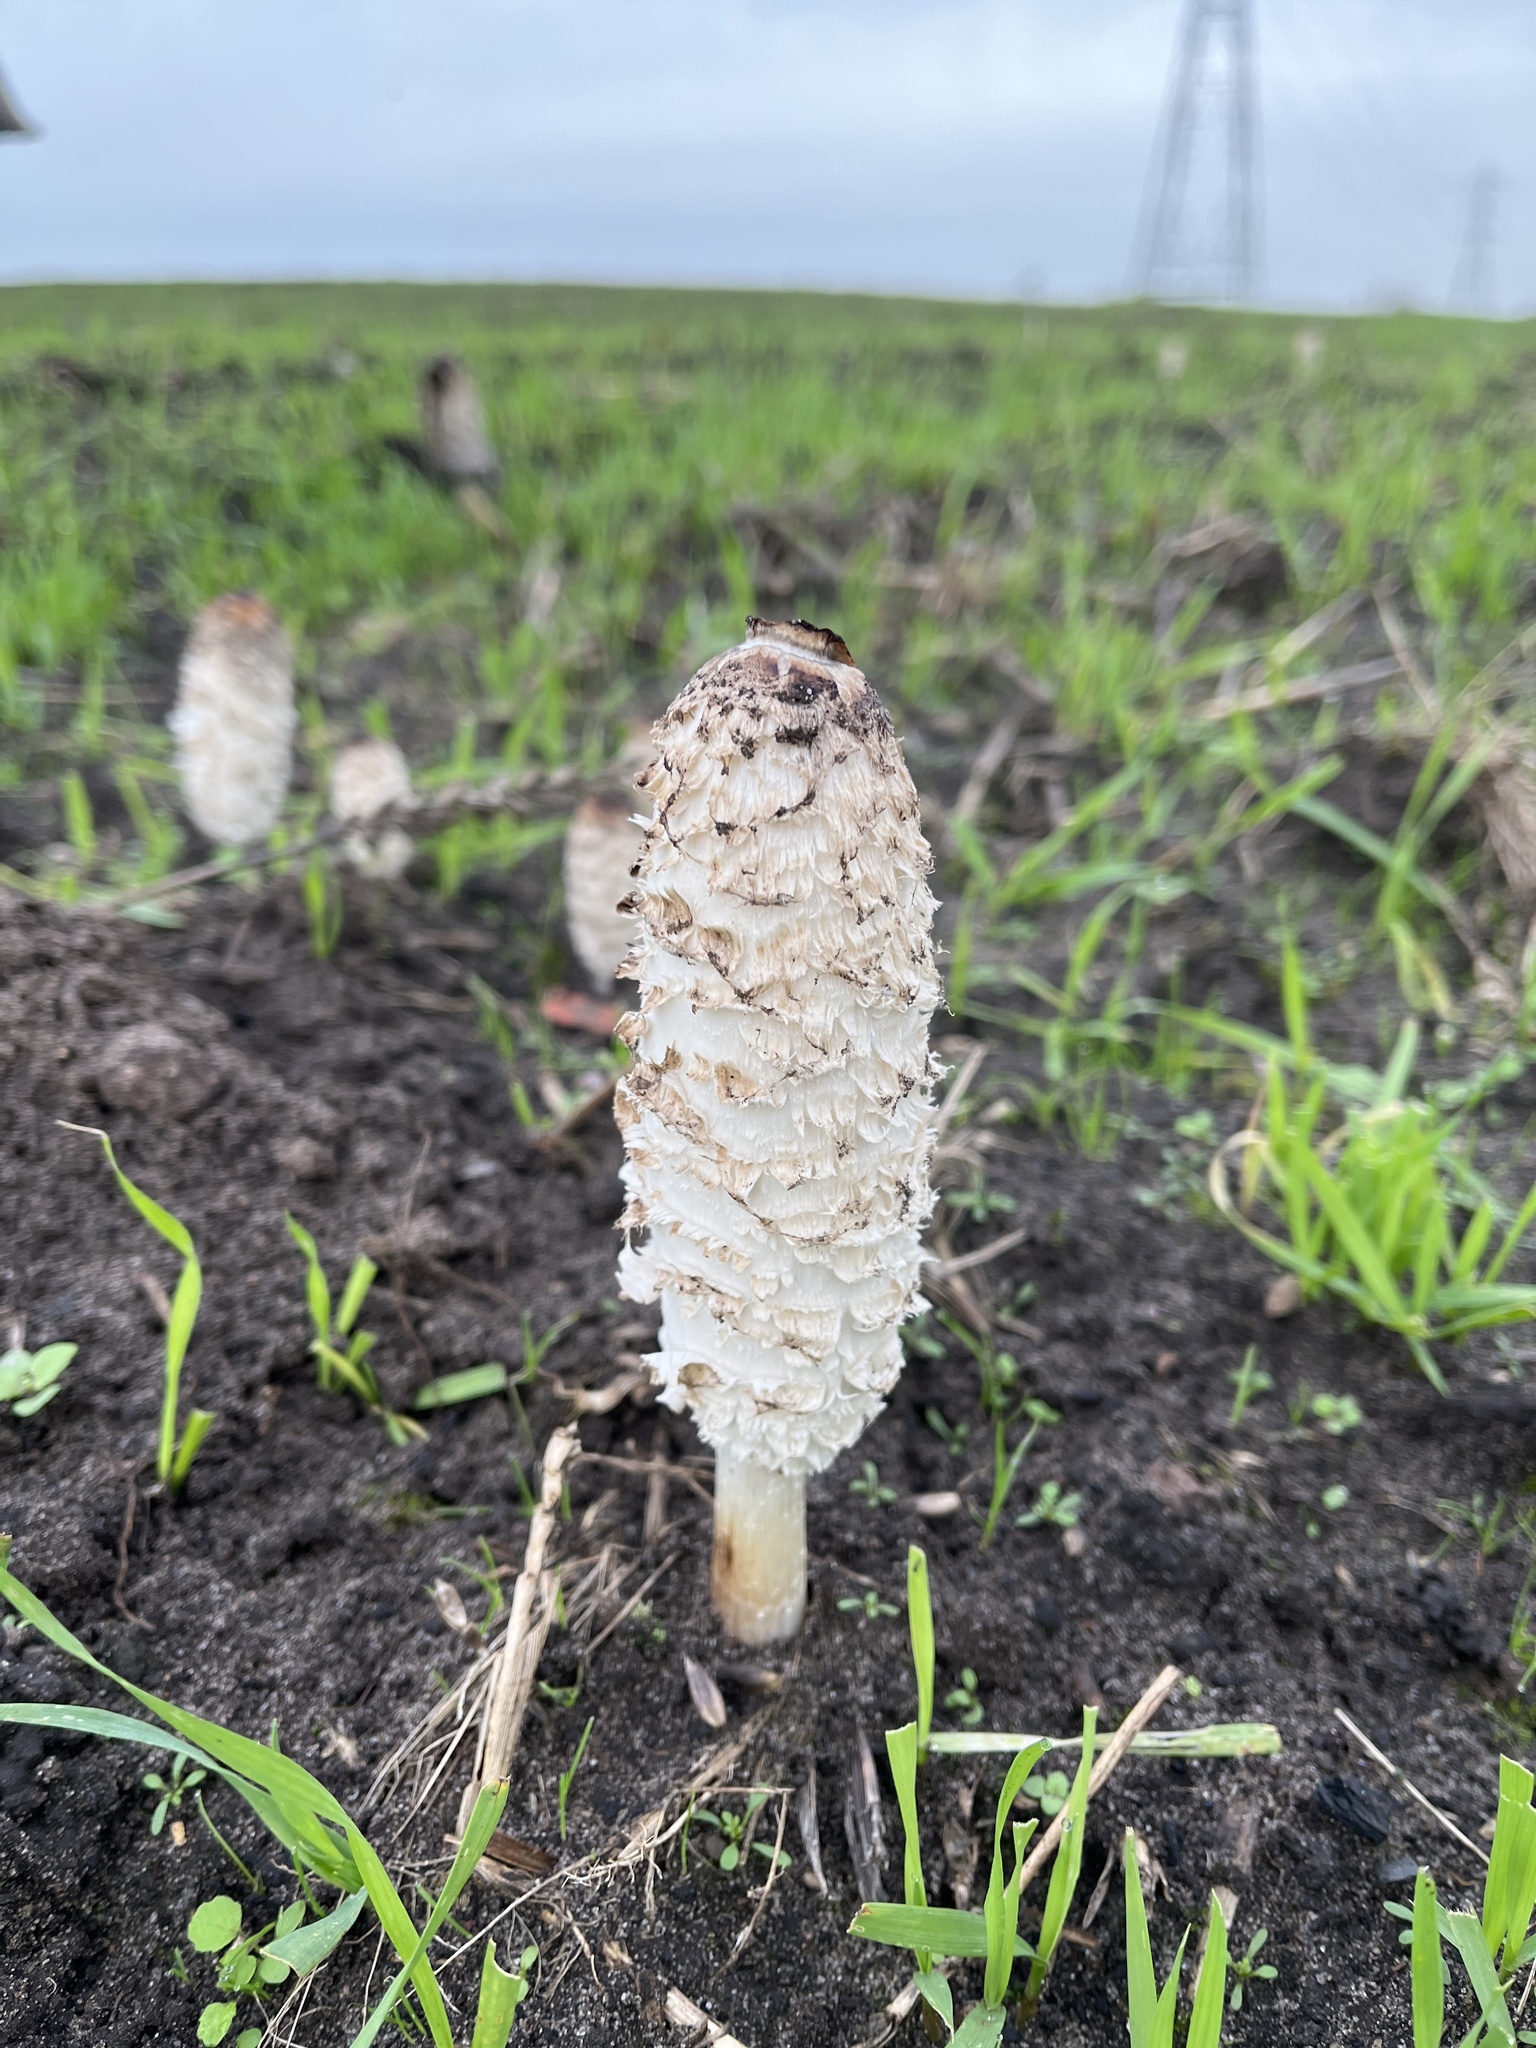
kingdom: Fungi
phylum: Basidiomycota
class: Agaricomycetes
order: Agaricales
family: Agaricaceae
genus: Coprinus
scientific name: Coprinus comatus
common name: Lawyer's wig
